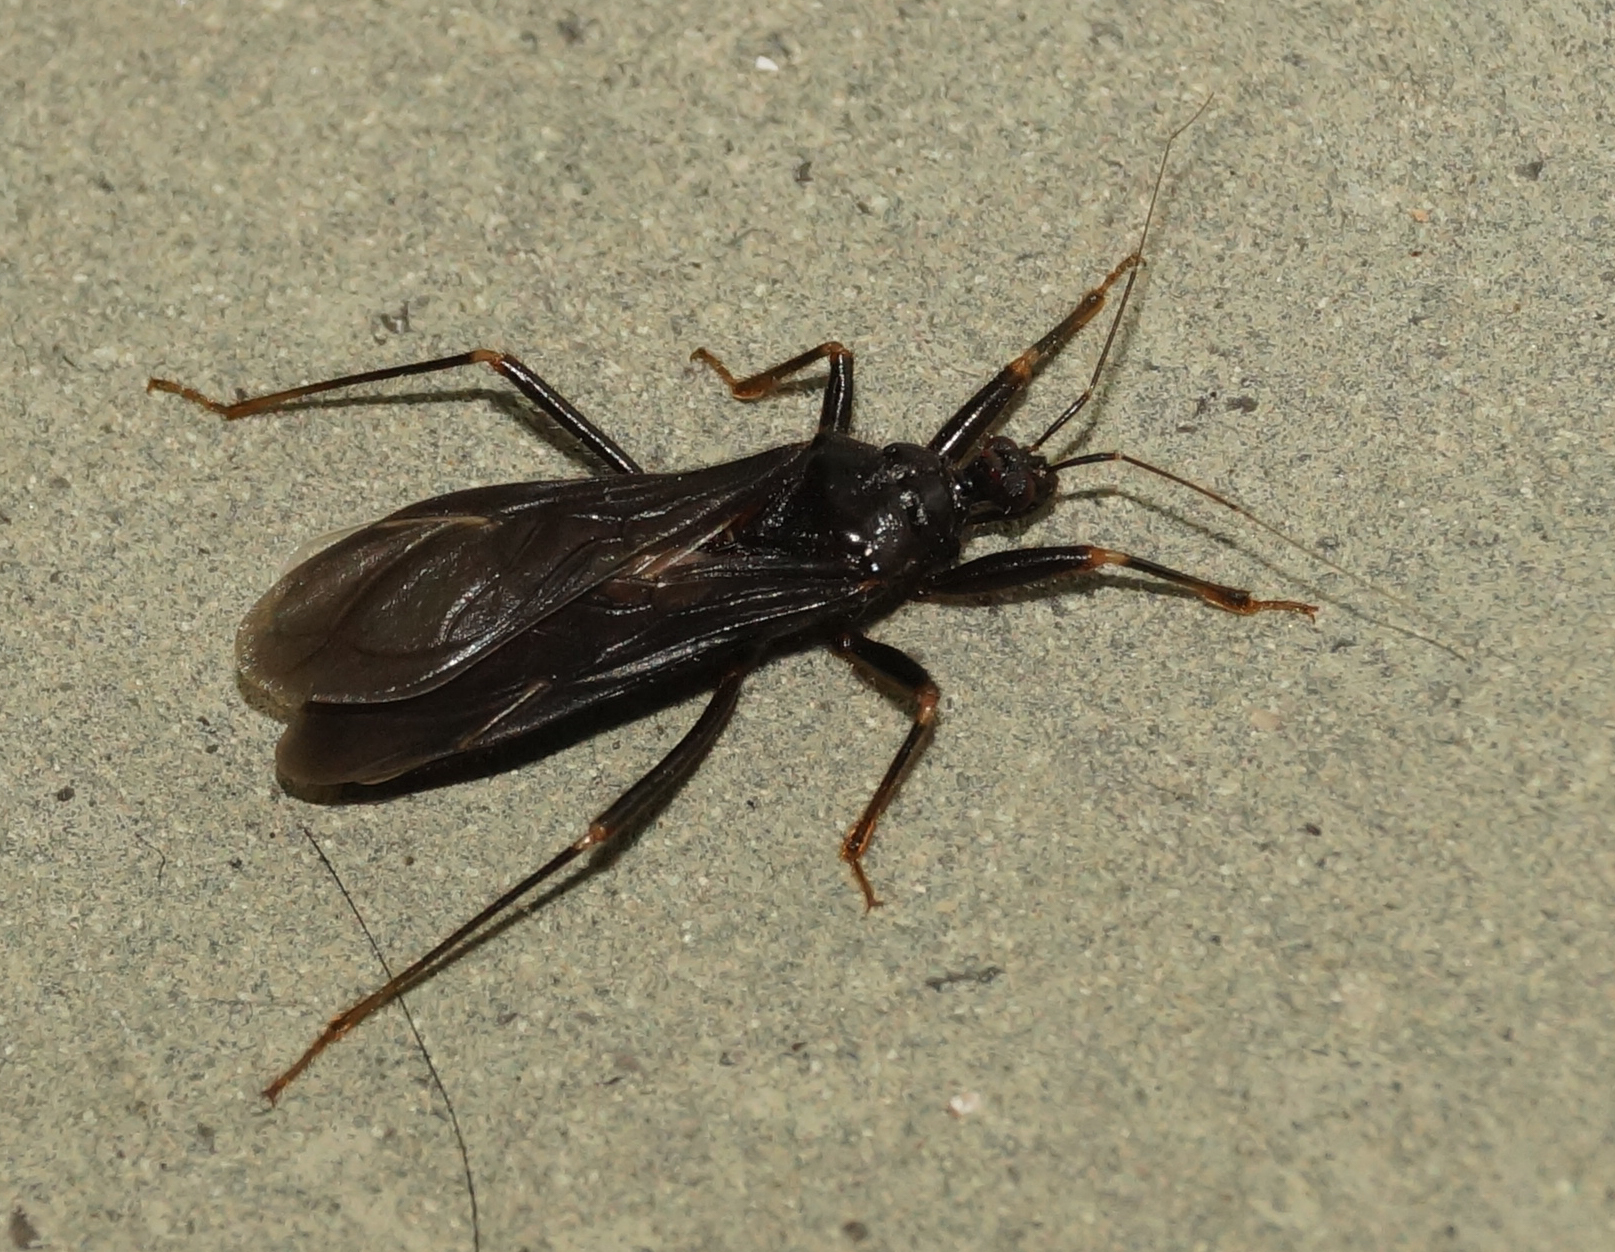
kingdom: Animalia
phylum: Arthropoda
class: Insecta
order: Hemiptera
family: Reduviidae
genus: Reduvius
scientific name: Reduvius personatus
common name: Masked hunter
